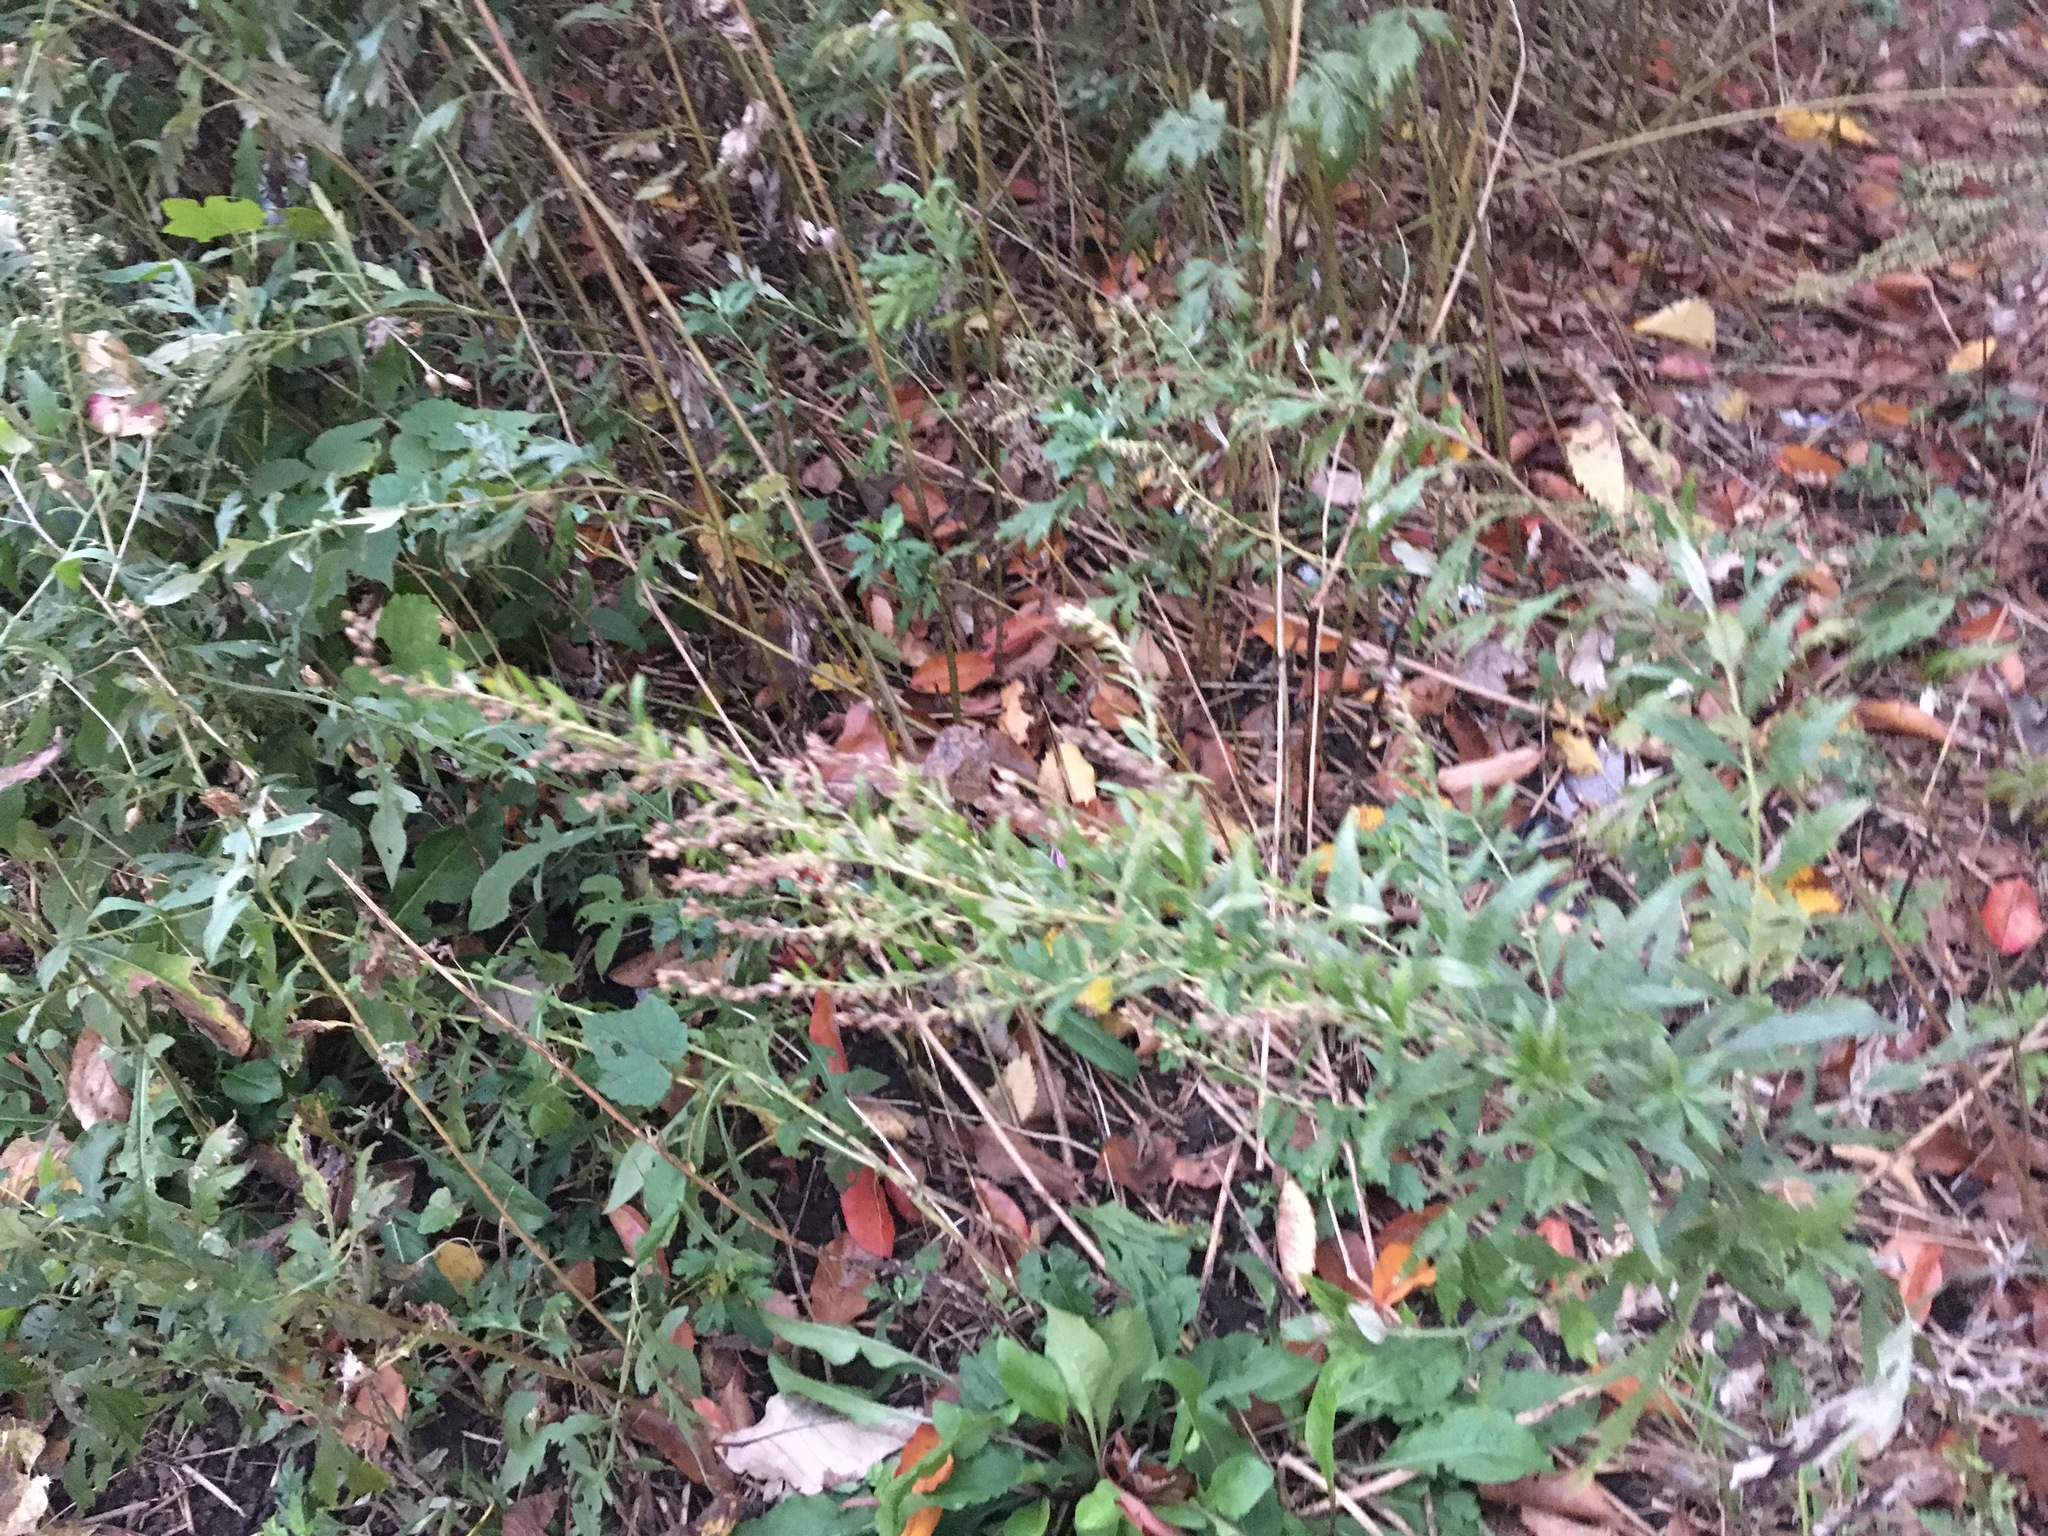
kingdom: Plantae
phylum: Tracheophyta
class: Magnoliopsida
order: Asterales
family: Asteraceae
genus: Artemisia
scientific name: Artemisia vulgaris
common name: Mugwort
